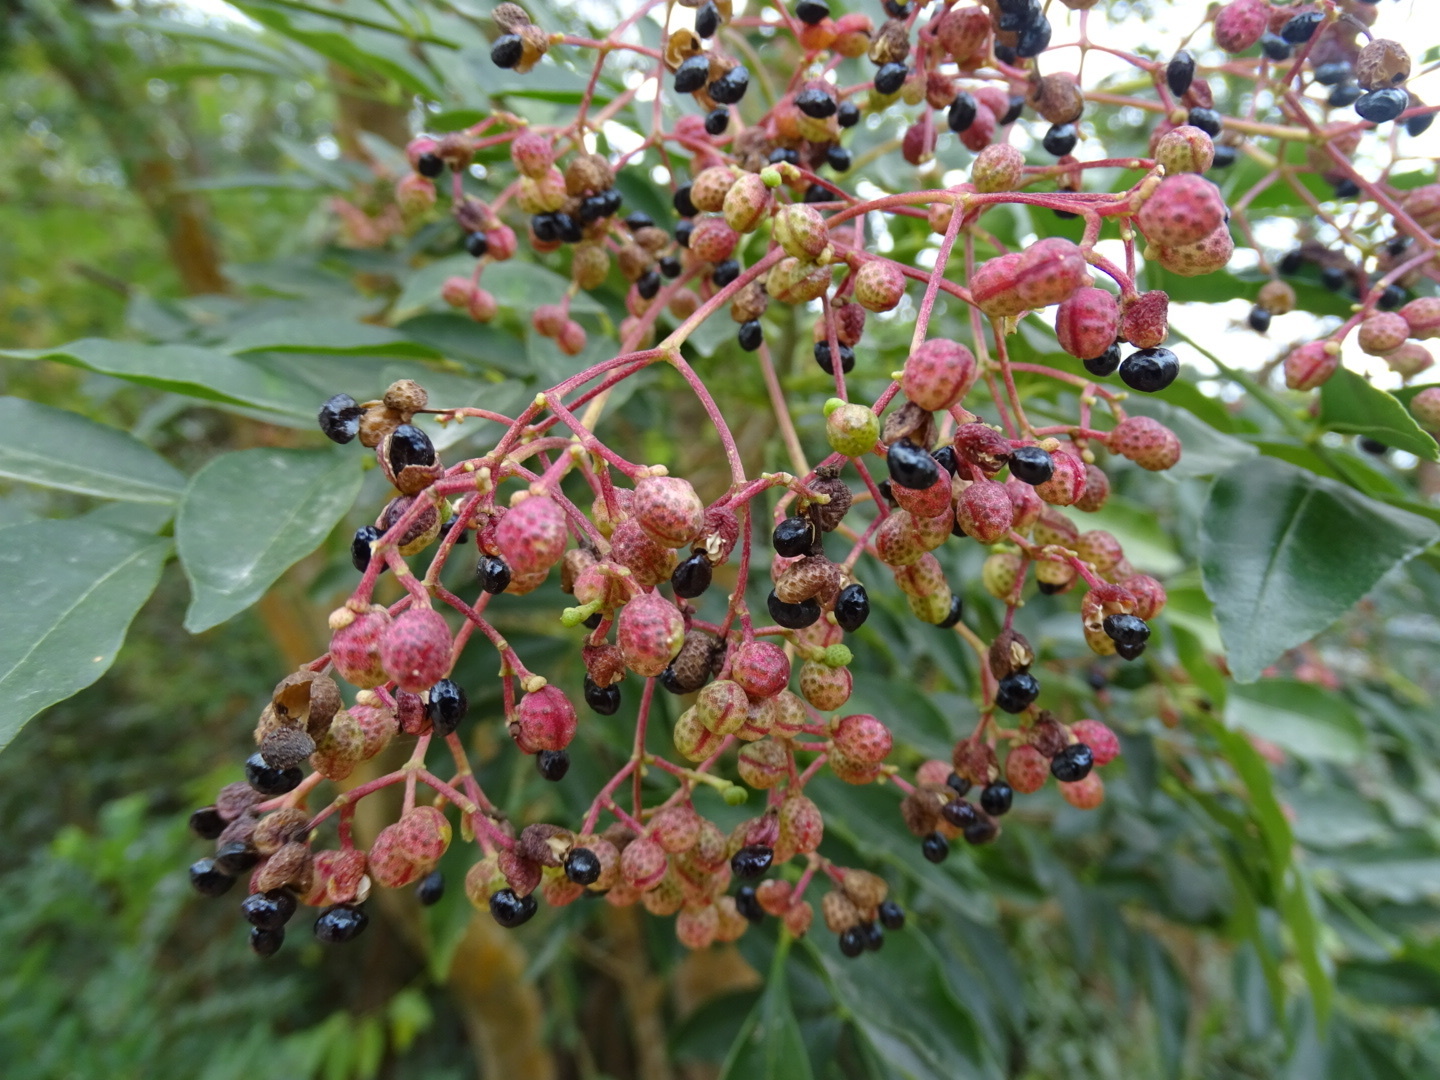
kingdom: Plantae
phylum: Tracheophyta
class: Magnoliopsida
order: Sapindales
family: Rutaceae
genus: Zanthoxylum
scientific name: Zanthoxylum avicennae
